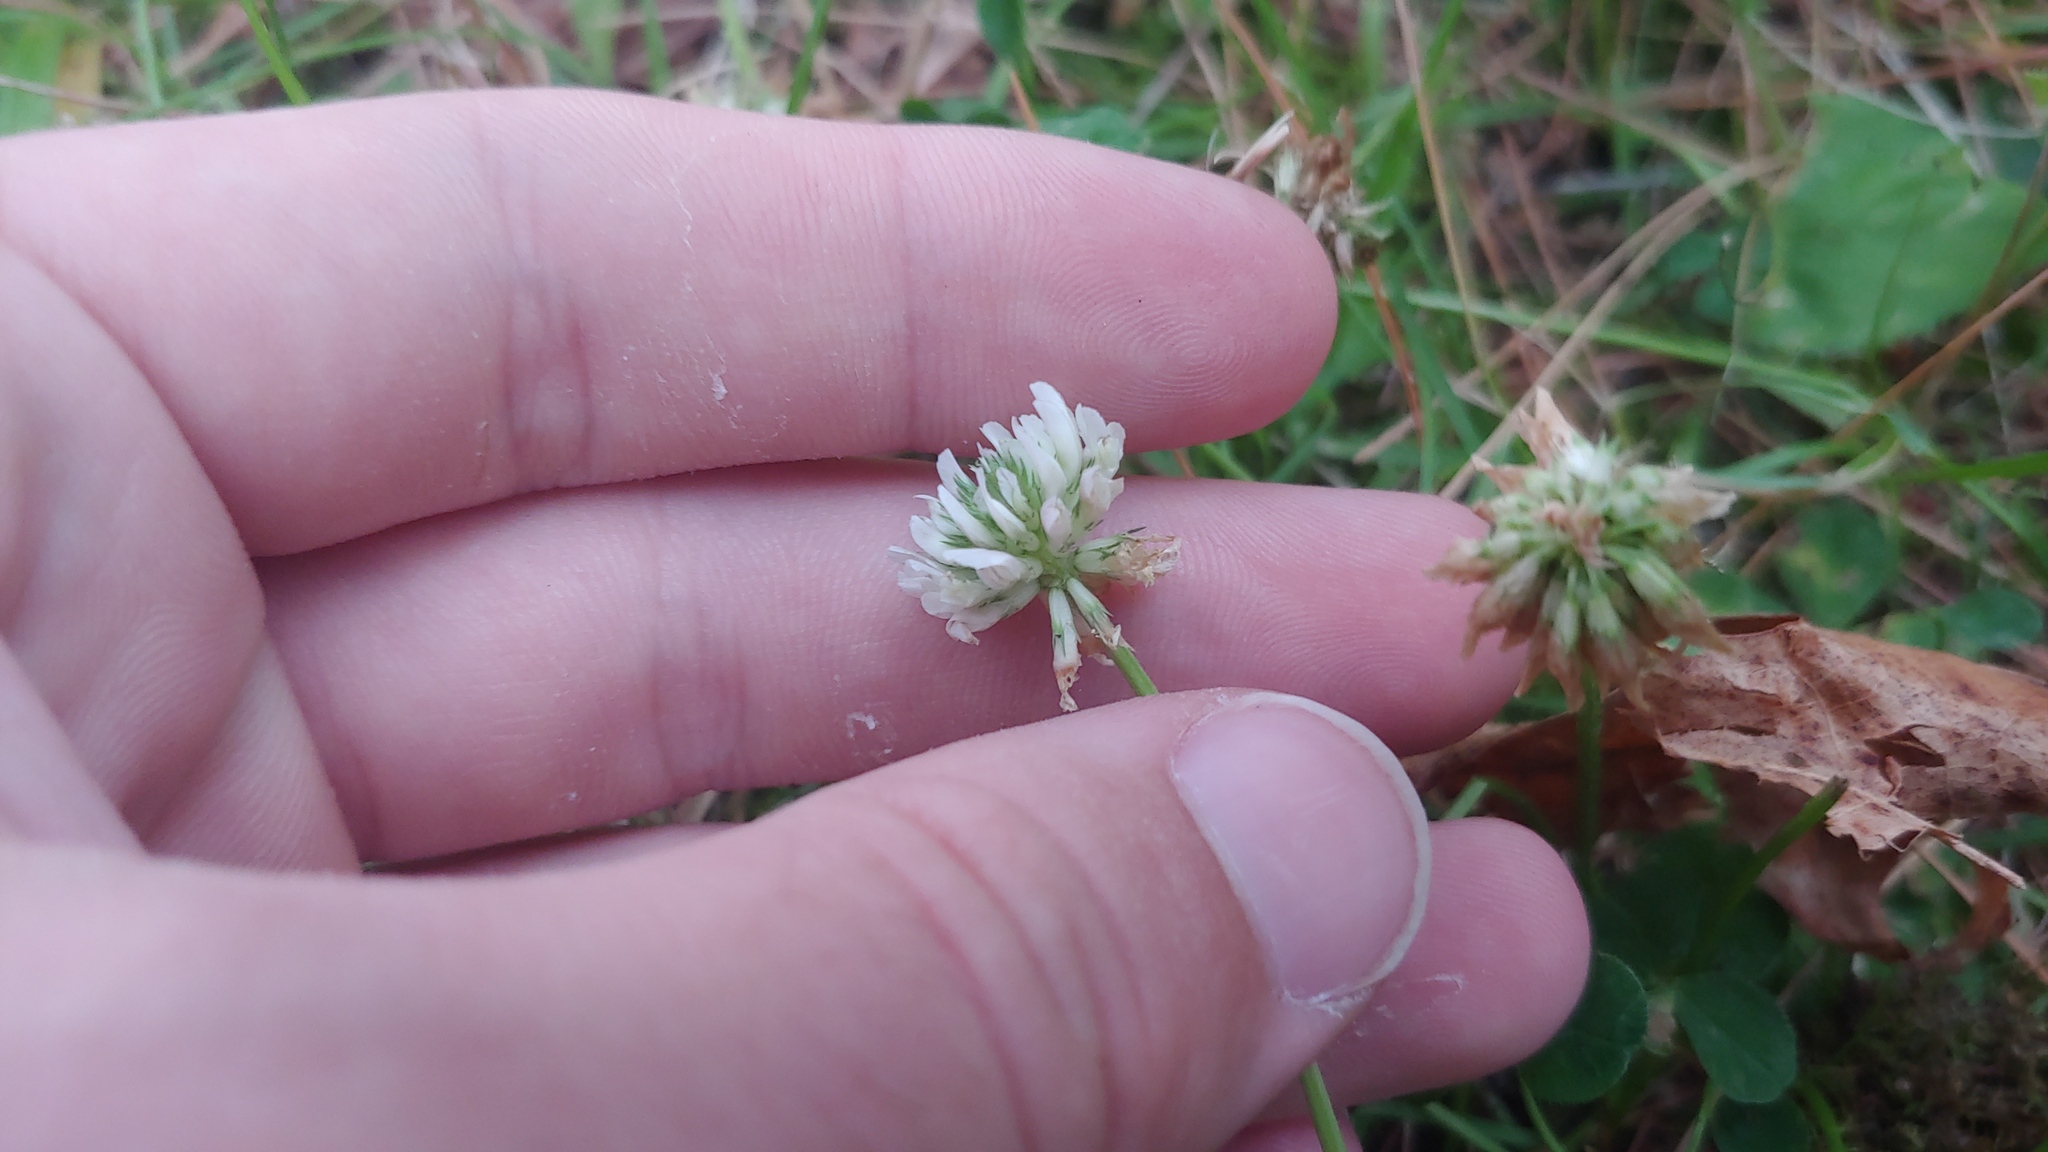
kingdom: Plantae
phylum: Tracheophyta
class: Magnoliopsida
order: Fabales
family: Fabaceae
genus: Trifolium
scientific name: Trifolium repens
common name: White clover
